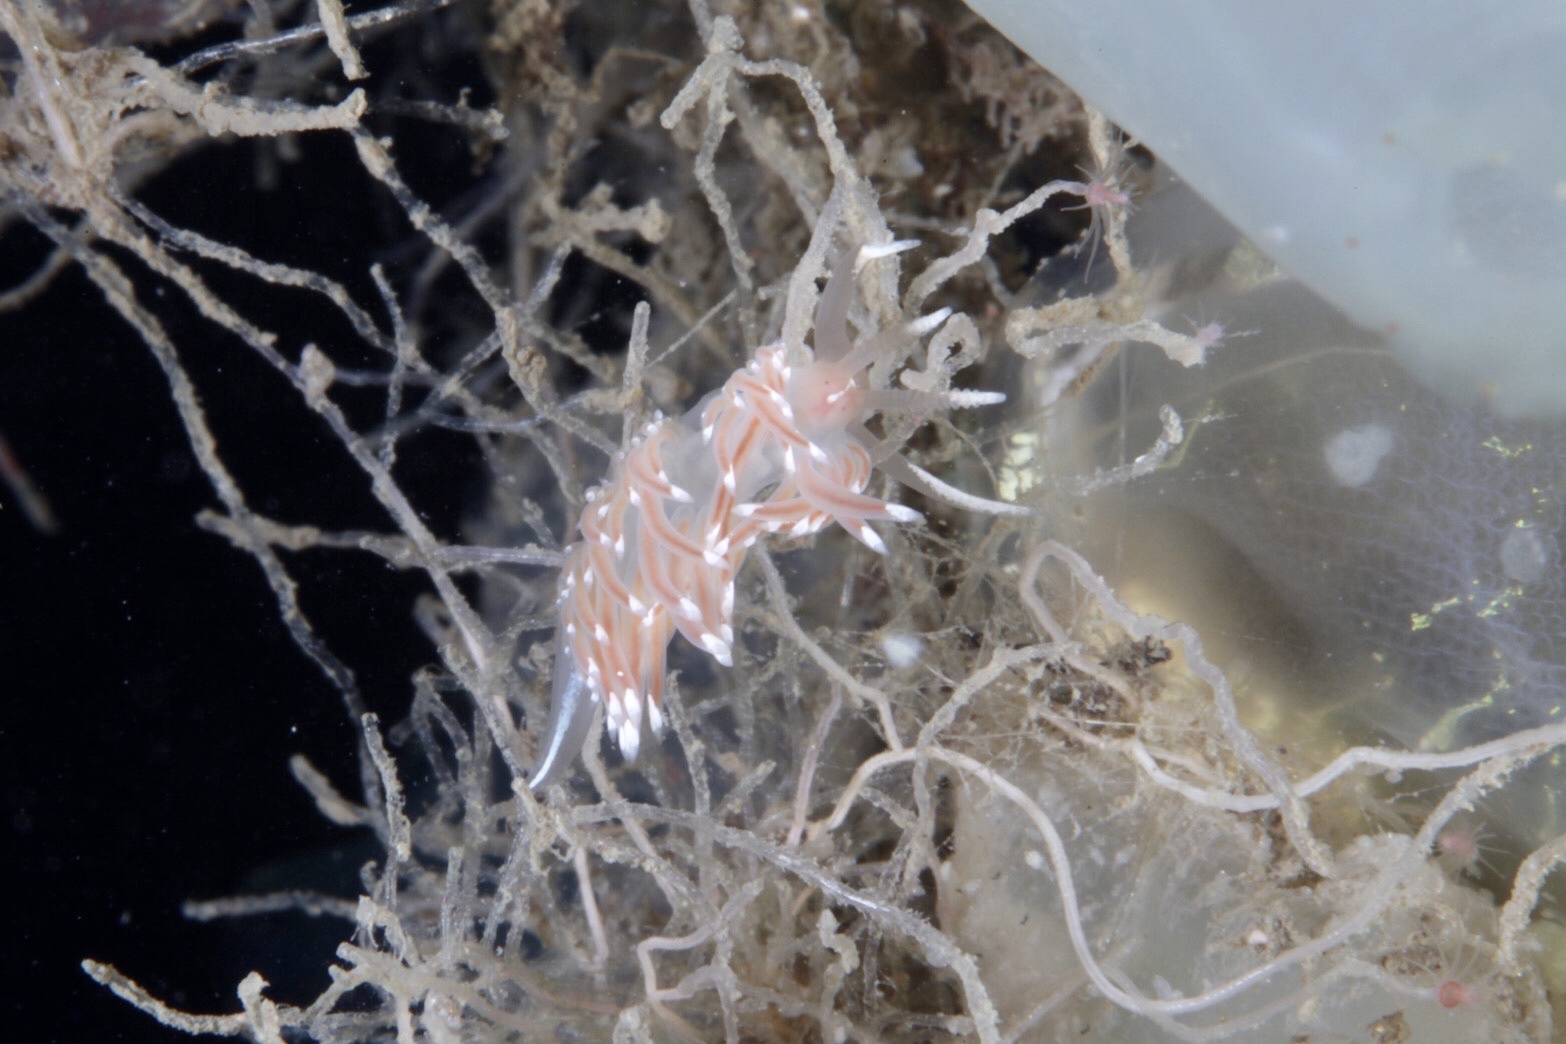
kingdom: Animalia
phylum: Mollusca
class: Gastropoda
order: Nudibranchia
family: Facelinidae
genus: Facelina
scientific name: Facelina bostoniensis
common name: Boston facelina
